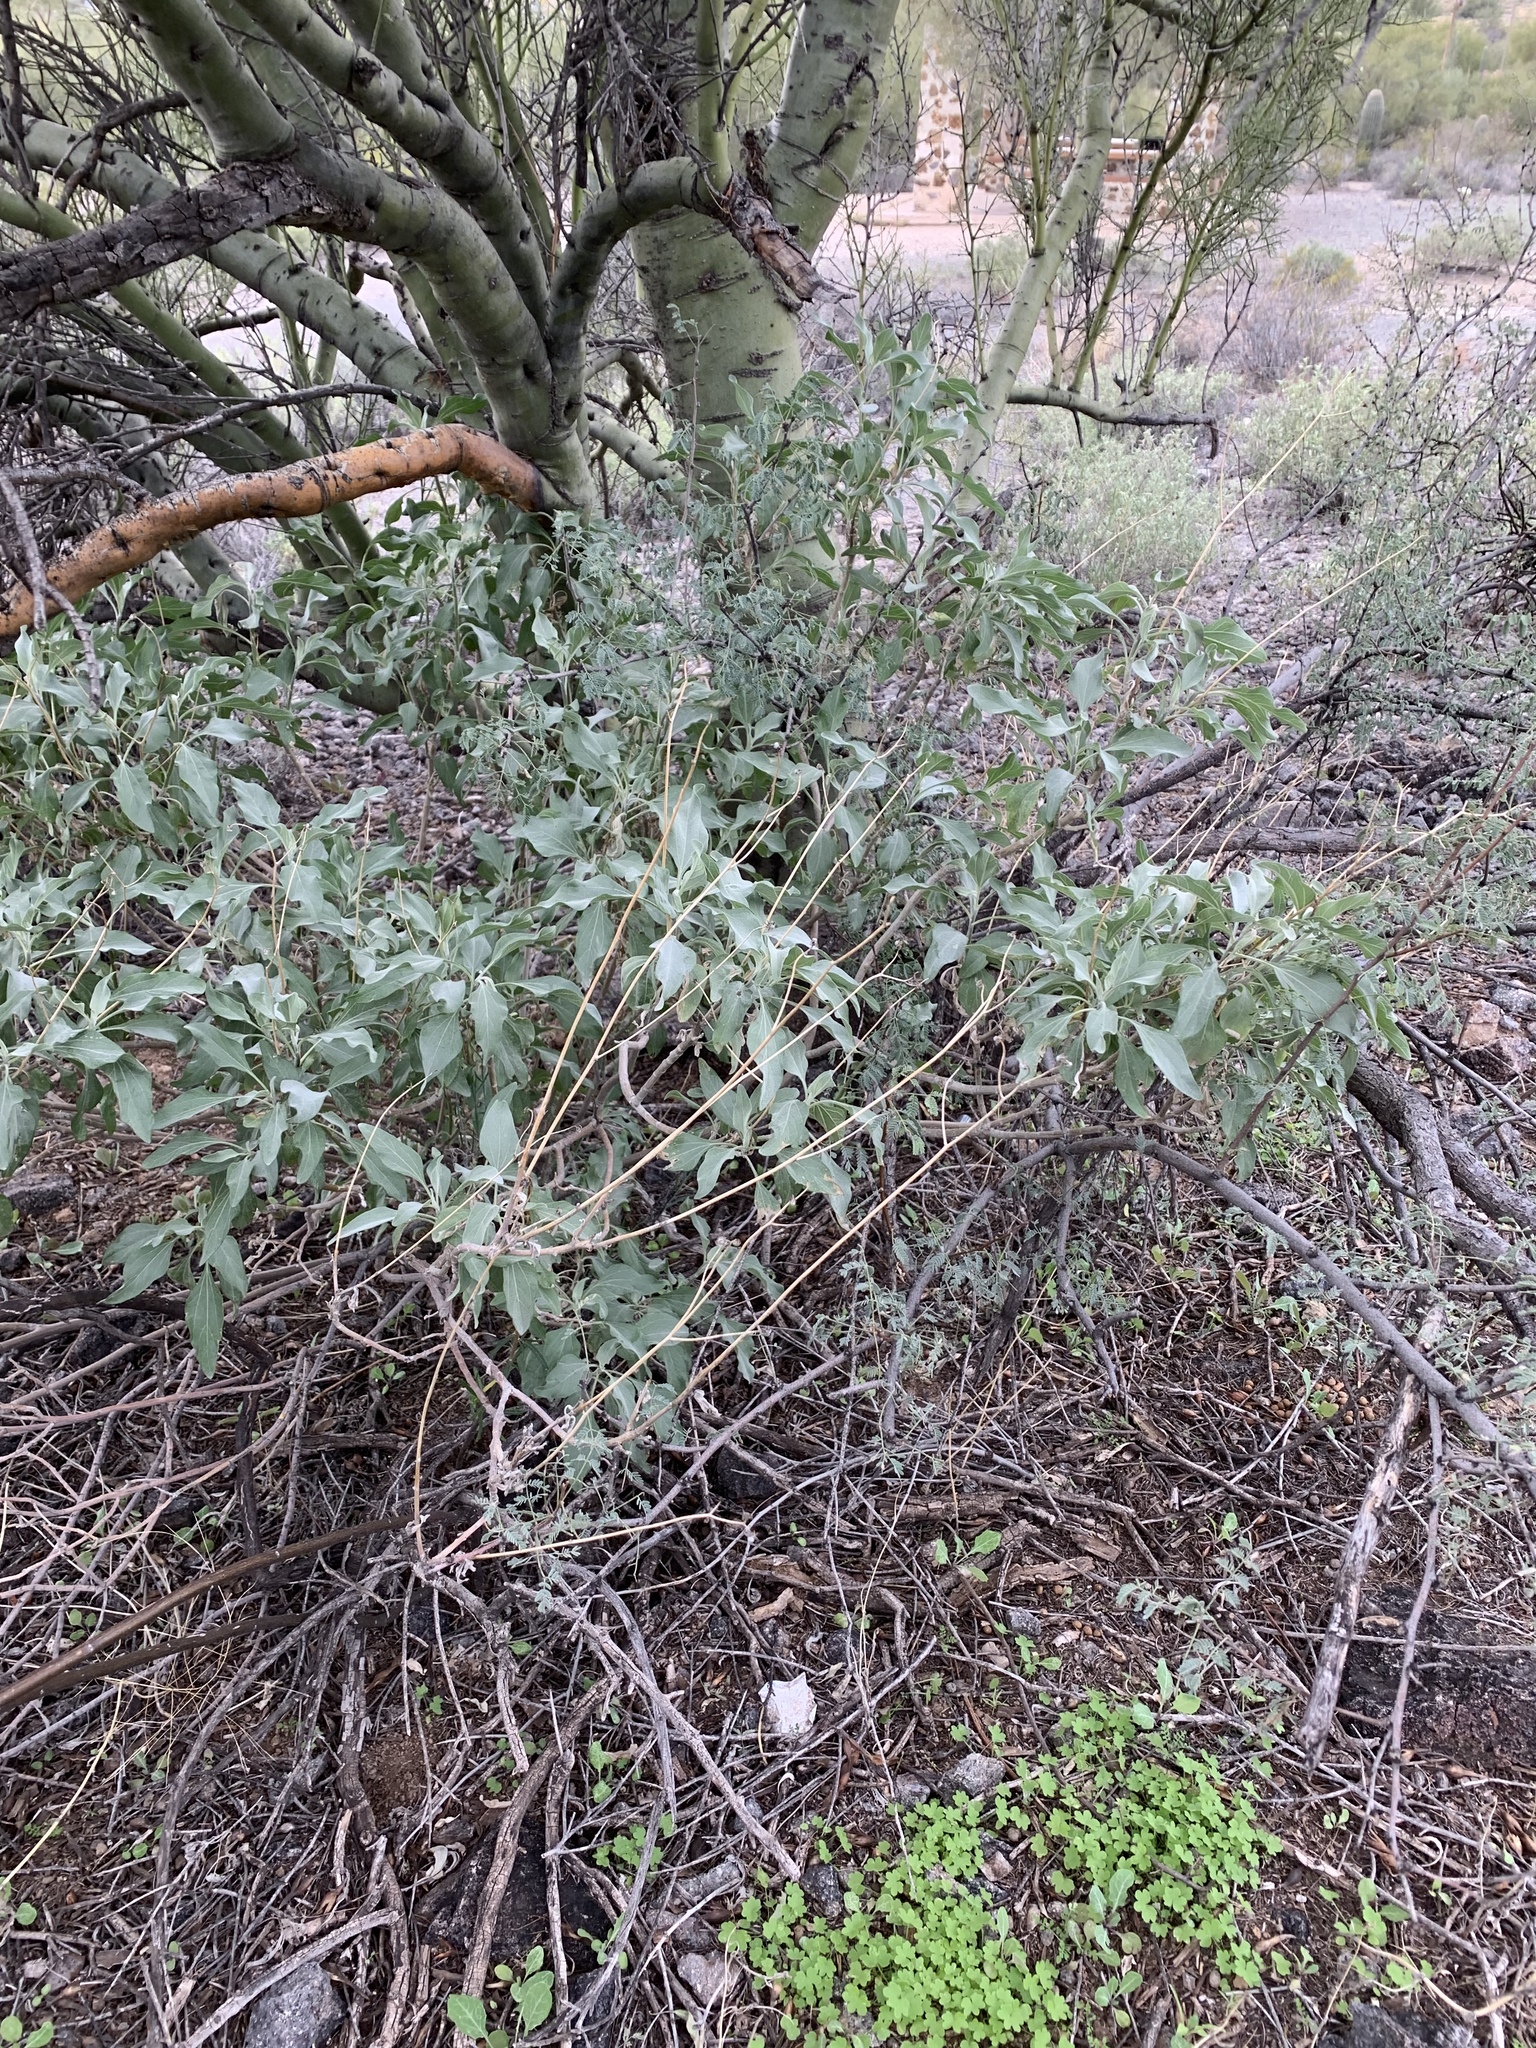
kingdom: Plantae
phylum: Tracheophyta
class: Magnoliopsida
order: Asterales
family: Asteraceae
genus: Encelia
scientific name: Encelia farinosa
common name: Brittlebush
